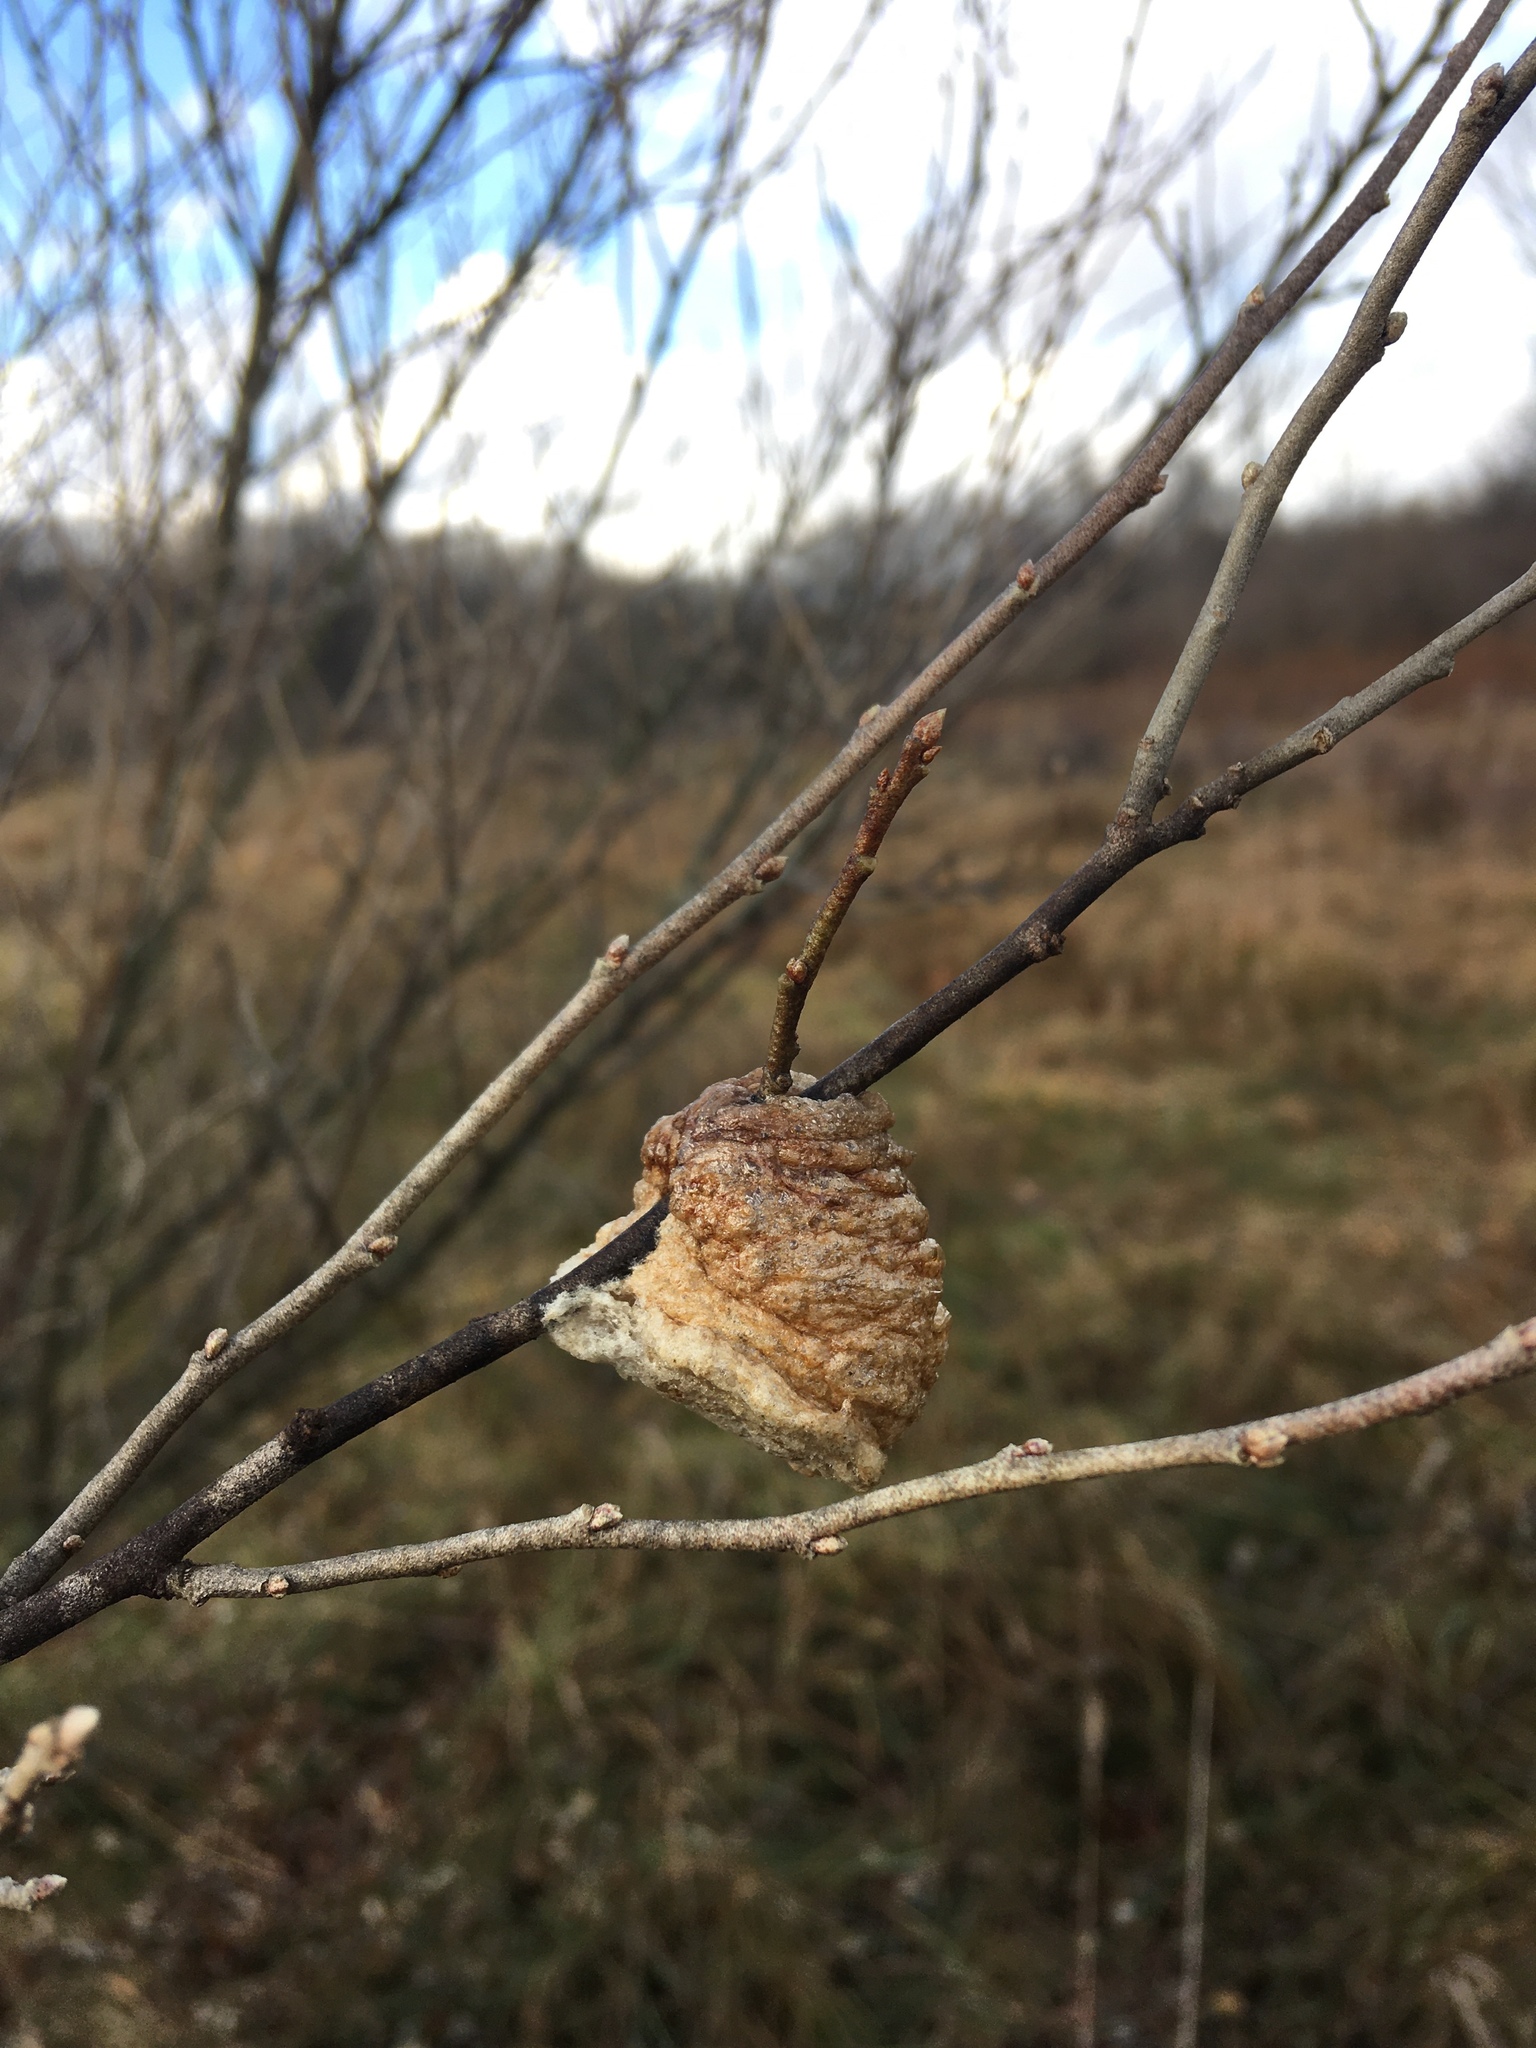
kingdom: Animalia
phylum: Arthropoda
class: Insecta
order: Mantodea
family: Mantidae
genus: Tenodera
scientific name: Tenodera sinensis
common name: Chinese mantis
